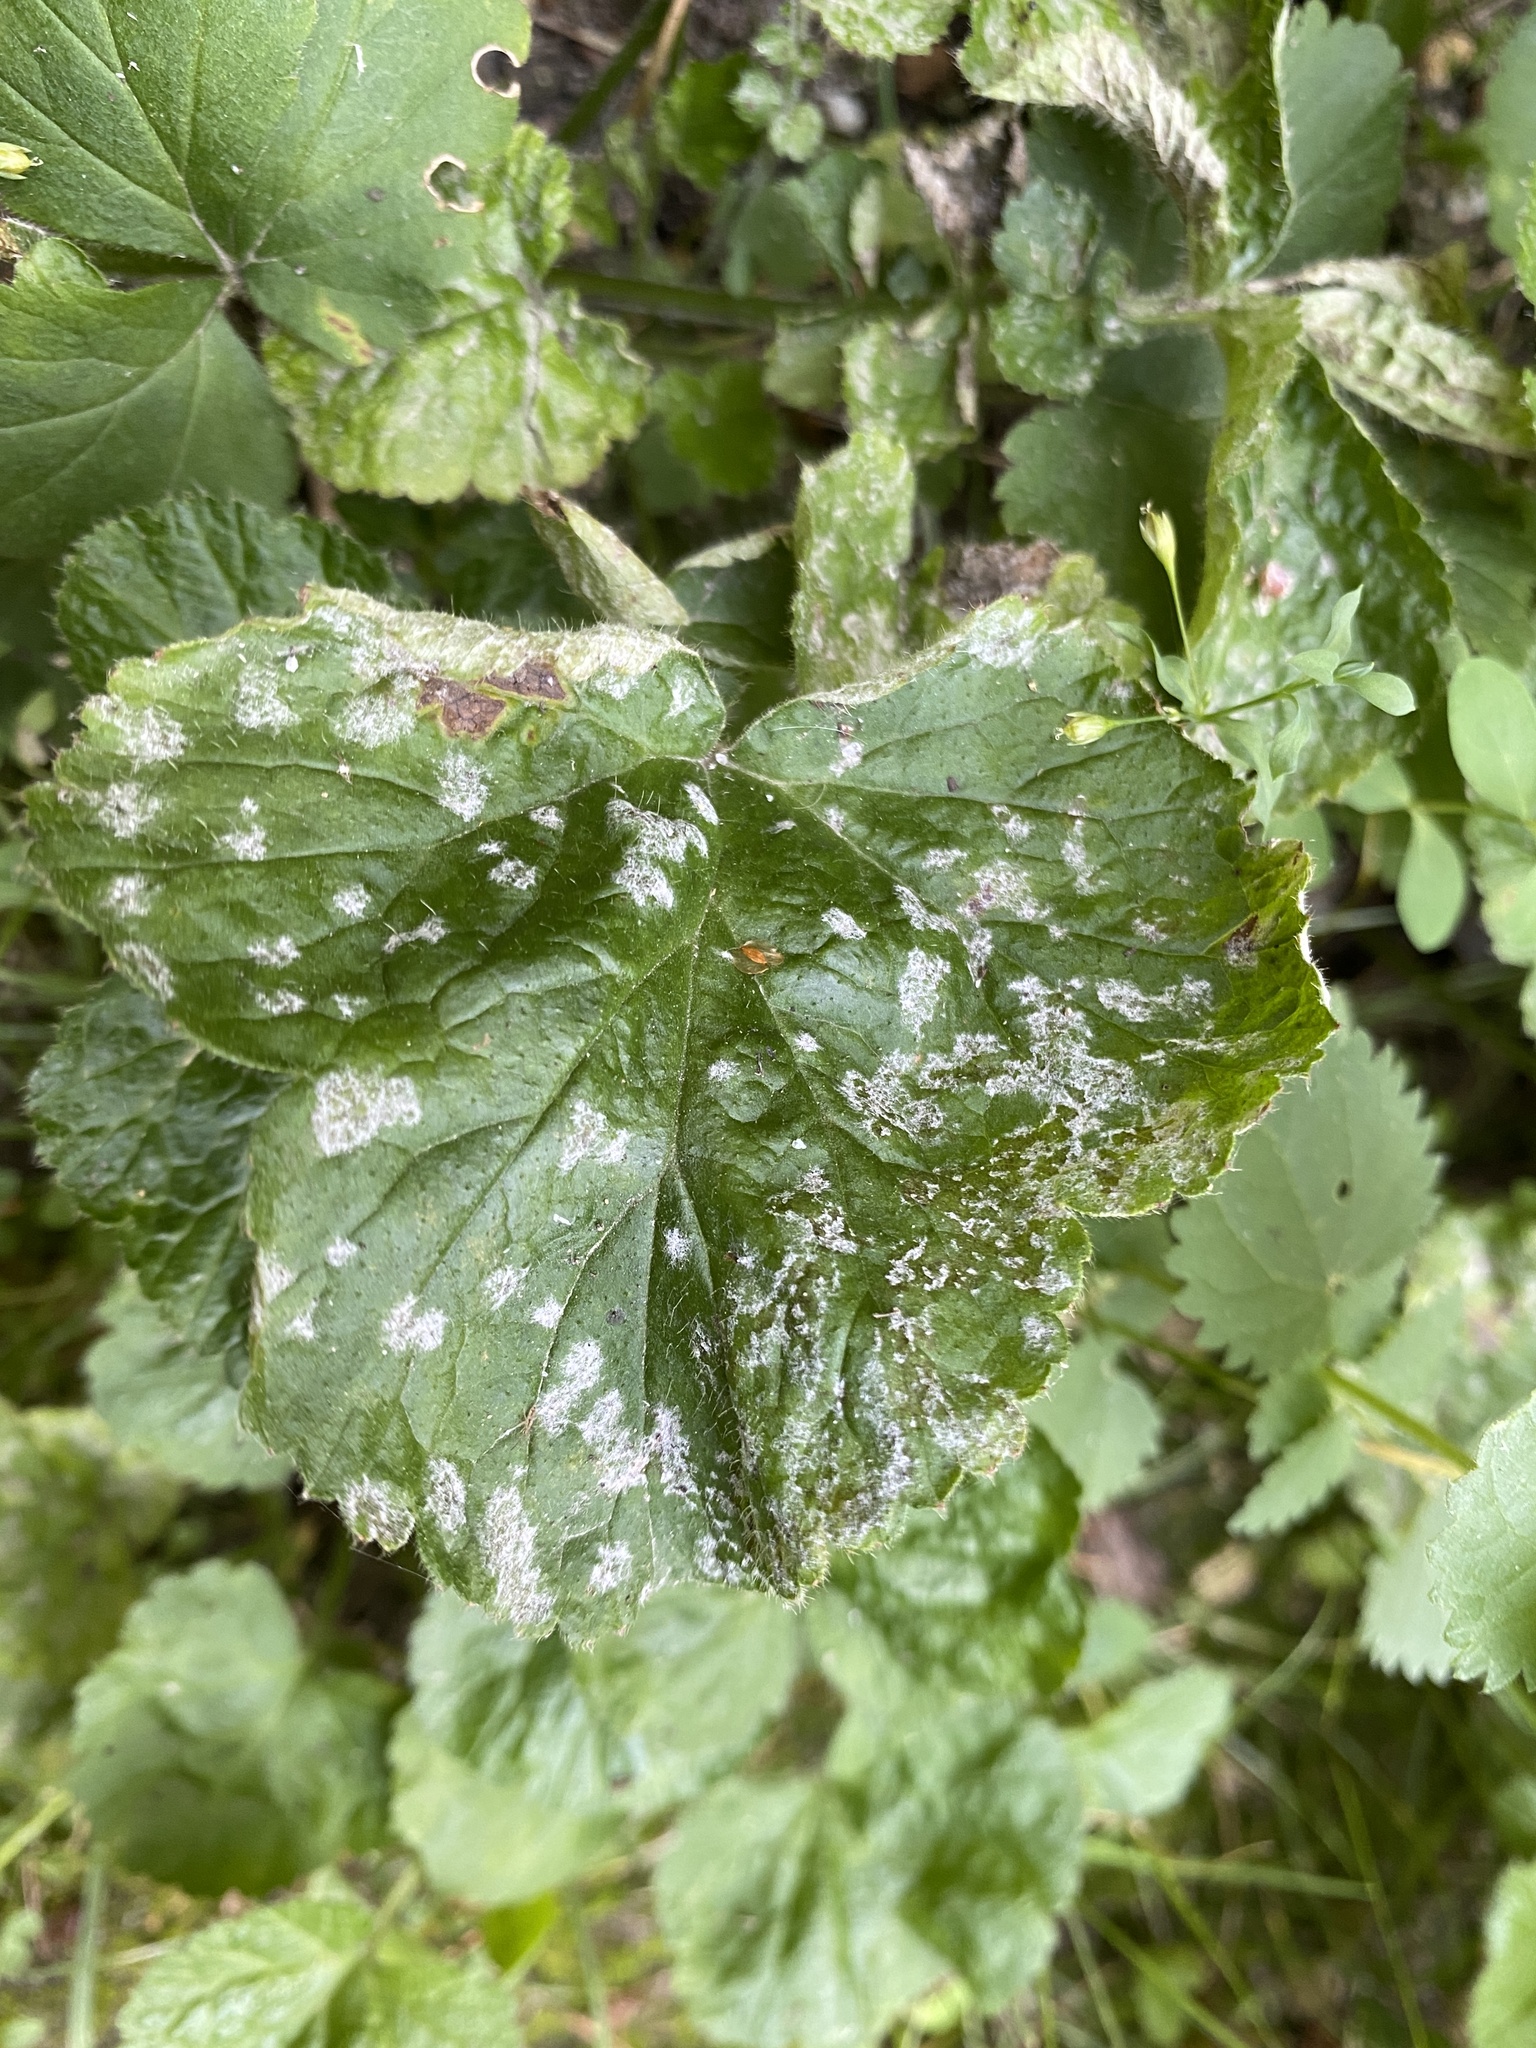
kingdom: Fungi
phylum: Ascomycota
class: Leotiomycetes
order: Helotiales
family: Erysiphaceae
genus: Podosphaera
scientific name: Podosphaera aphanis
